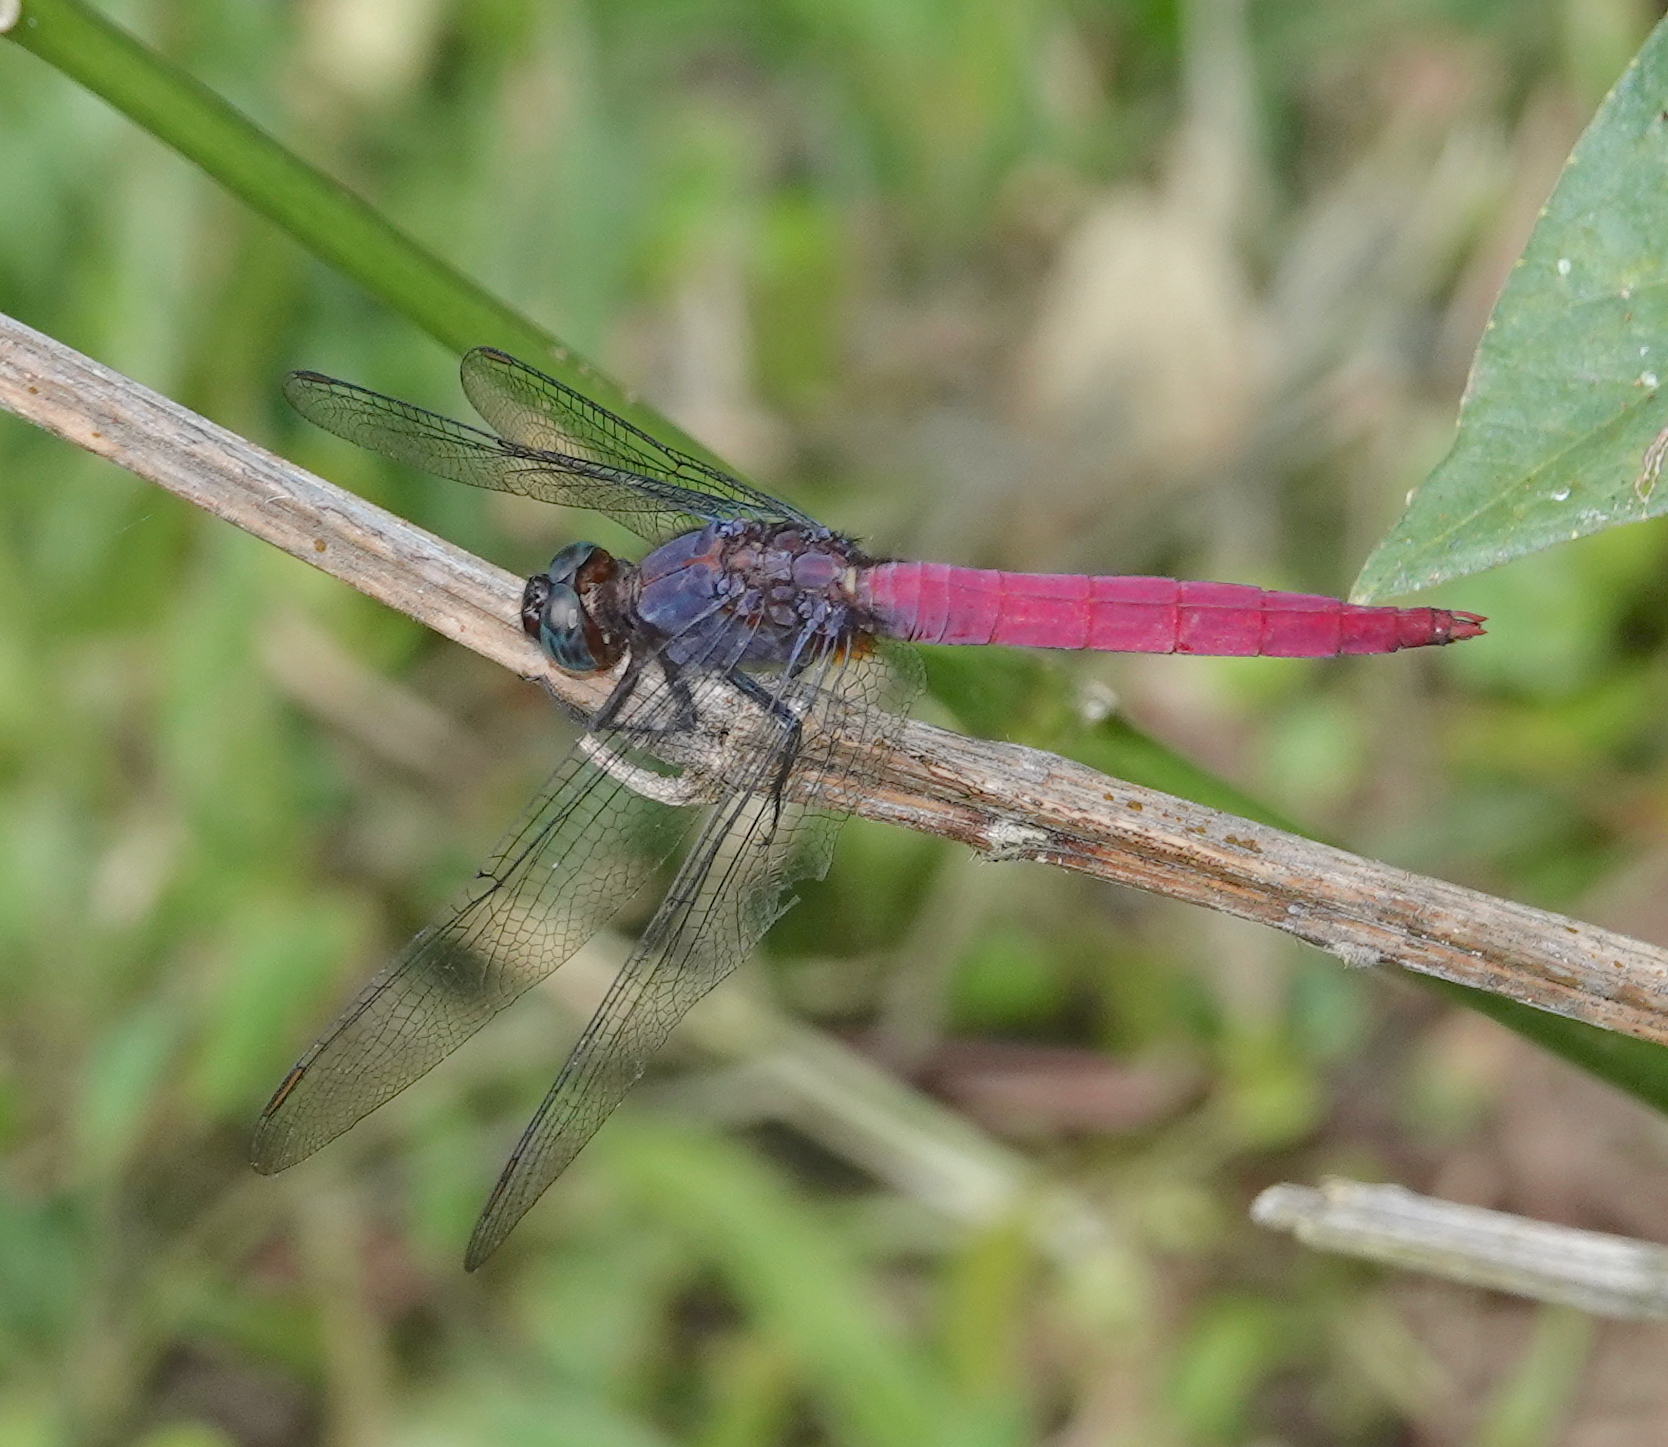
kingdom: Animalia
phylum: Arthropoda
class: Insecta
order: Odonata
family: Libellulidae
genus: Orthetrum
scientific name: Orthetrum pruinosum
